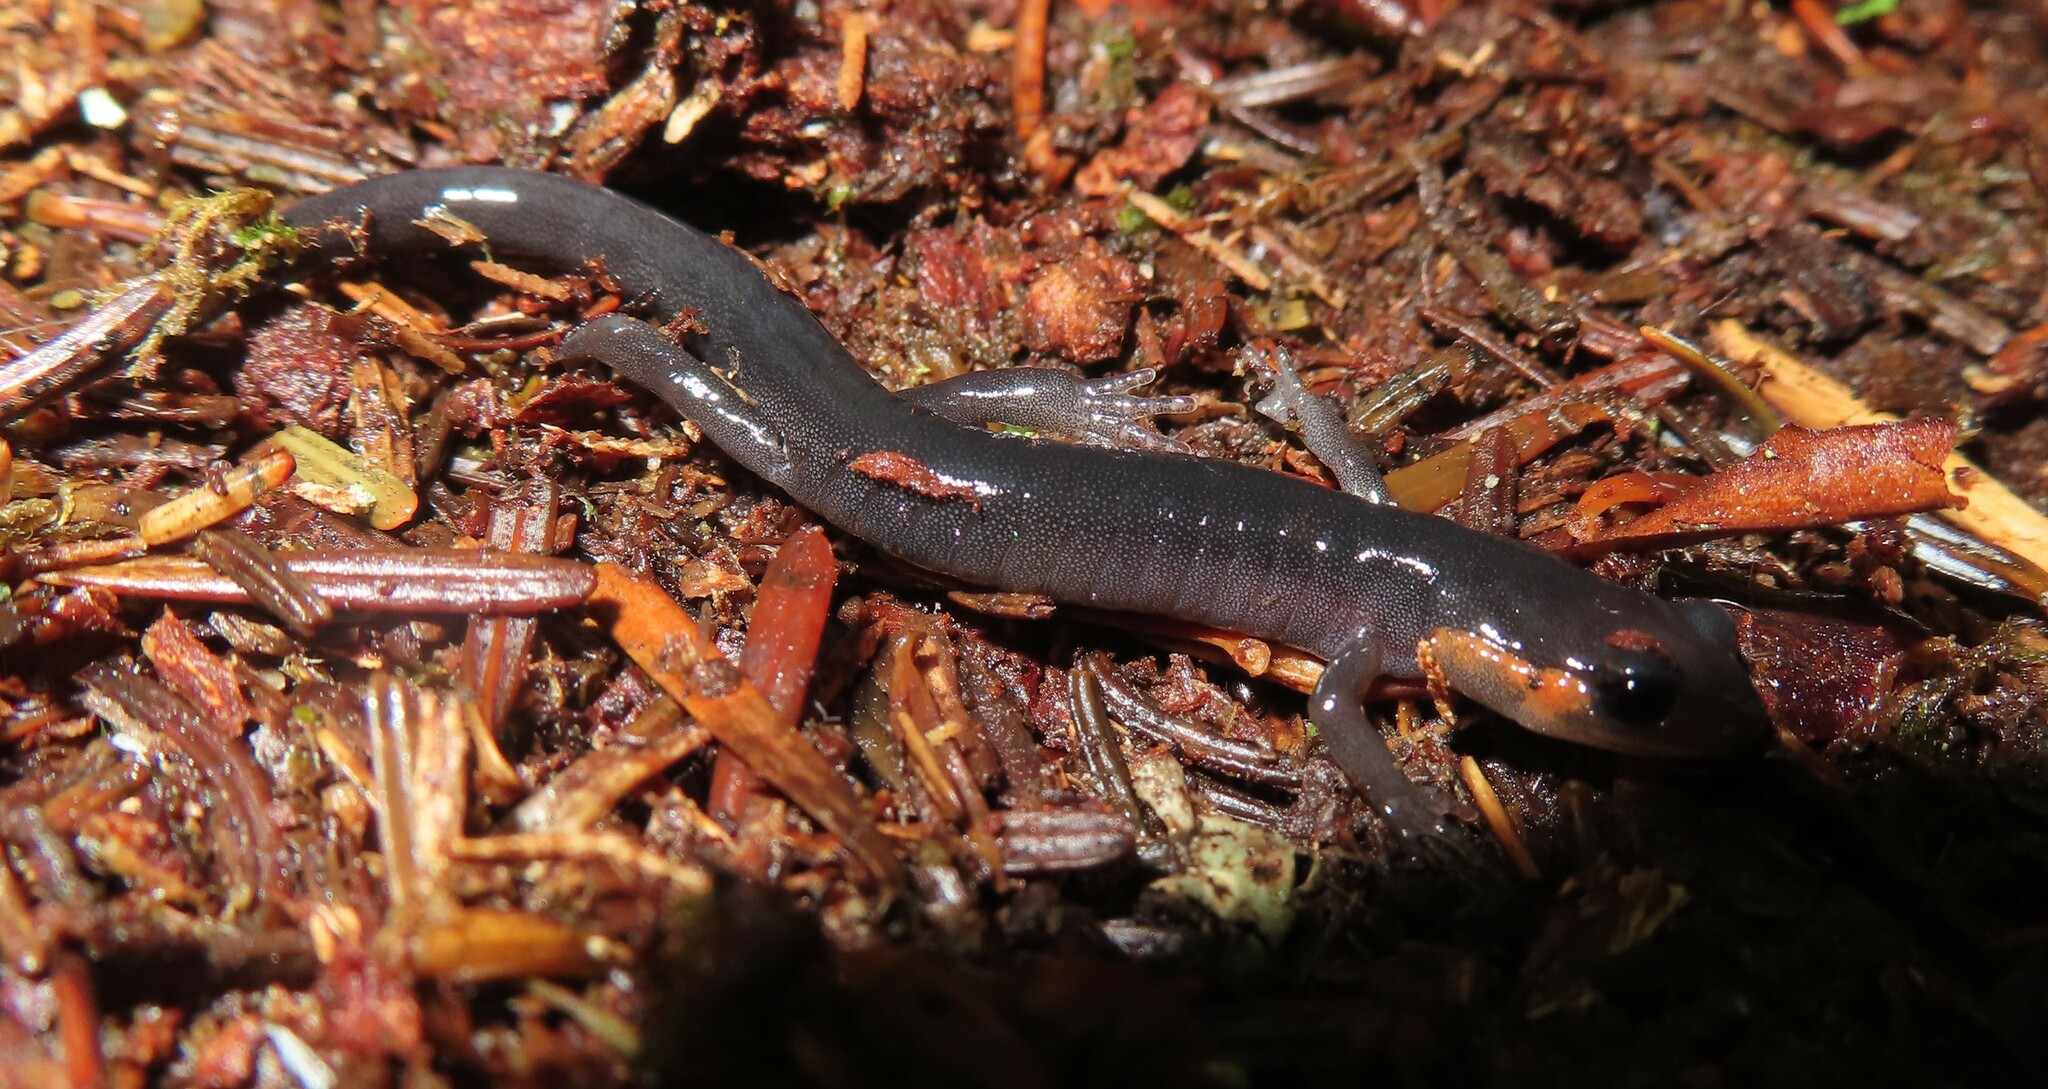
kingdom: Animalia
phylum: Chordata
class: Amphibia
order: Caudata
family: Plethodontidae
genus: Plethodon
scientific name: Plethodon jordani
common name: Red-cheeked salamander
